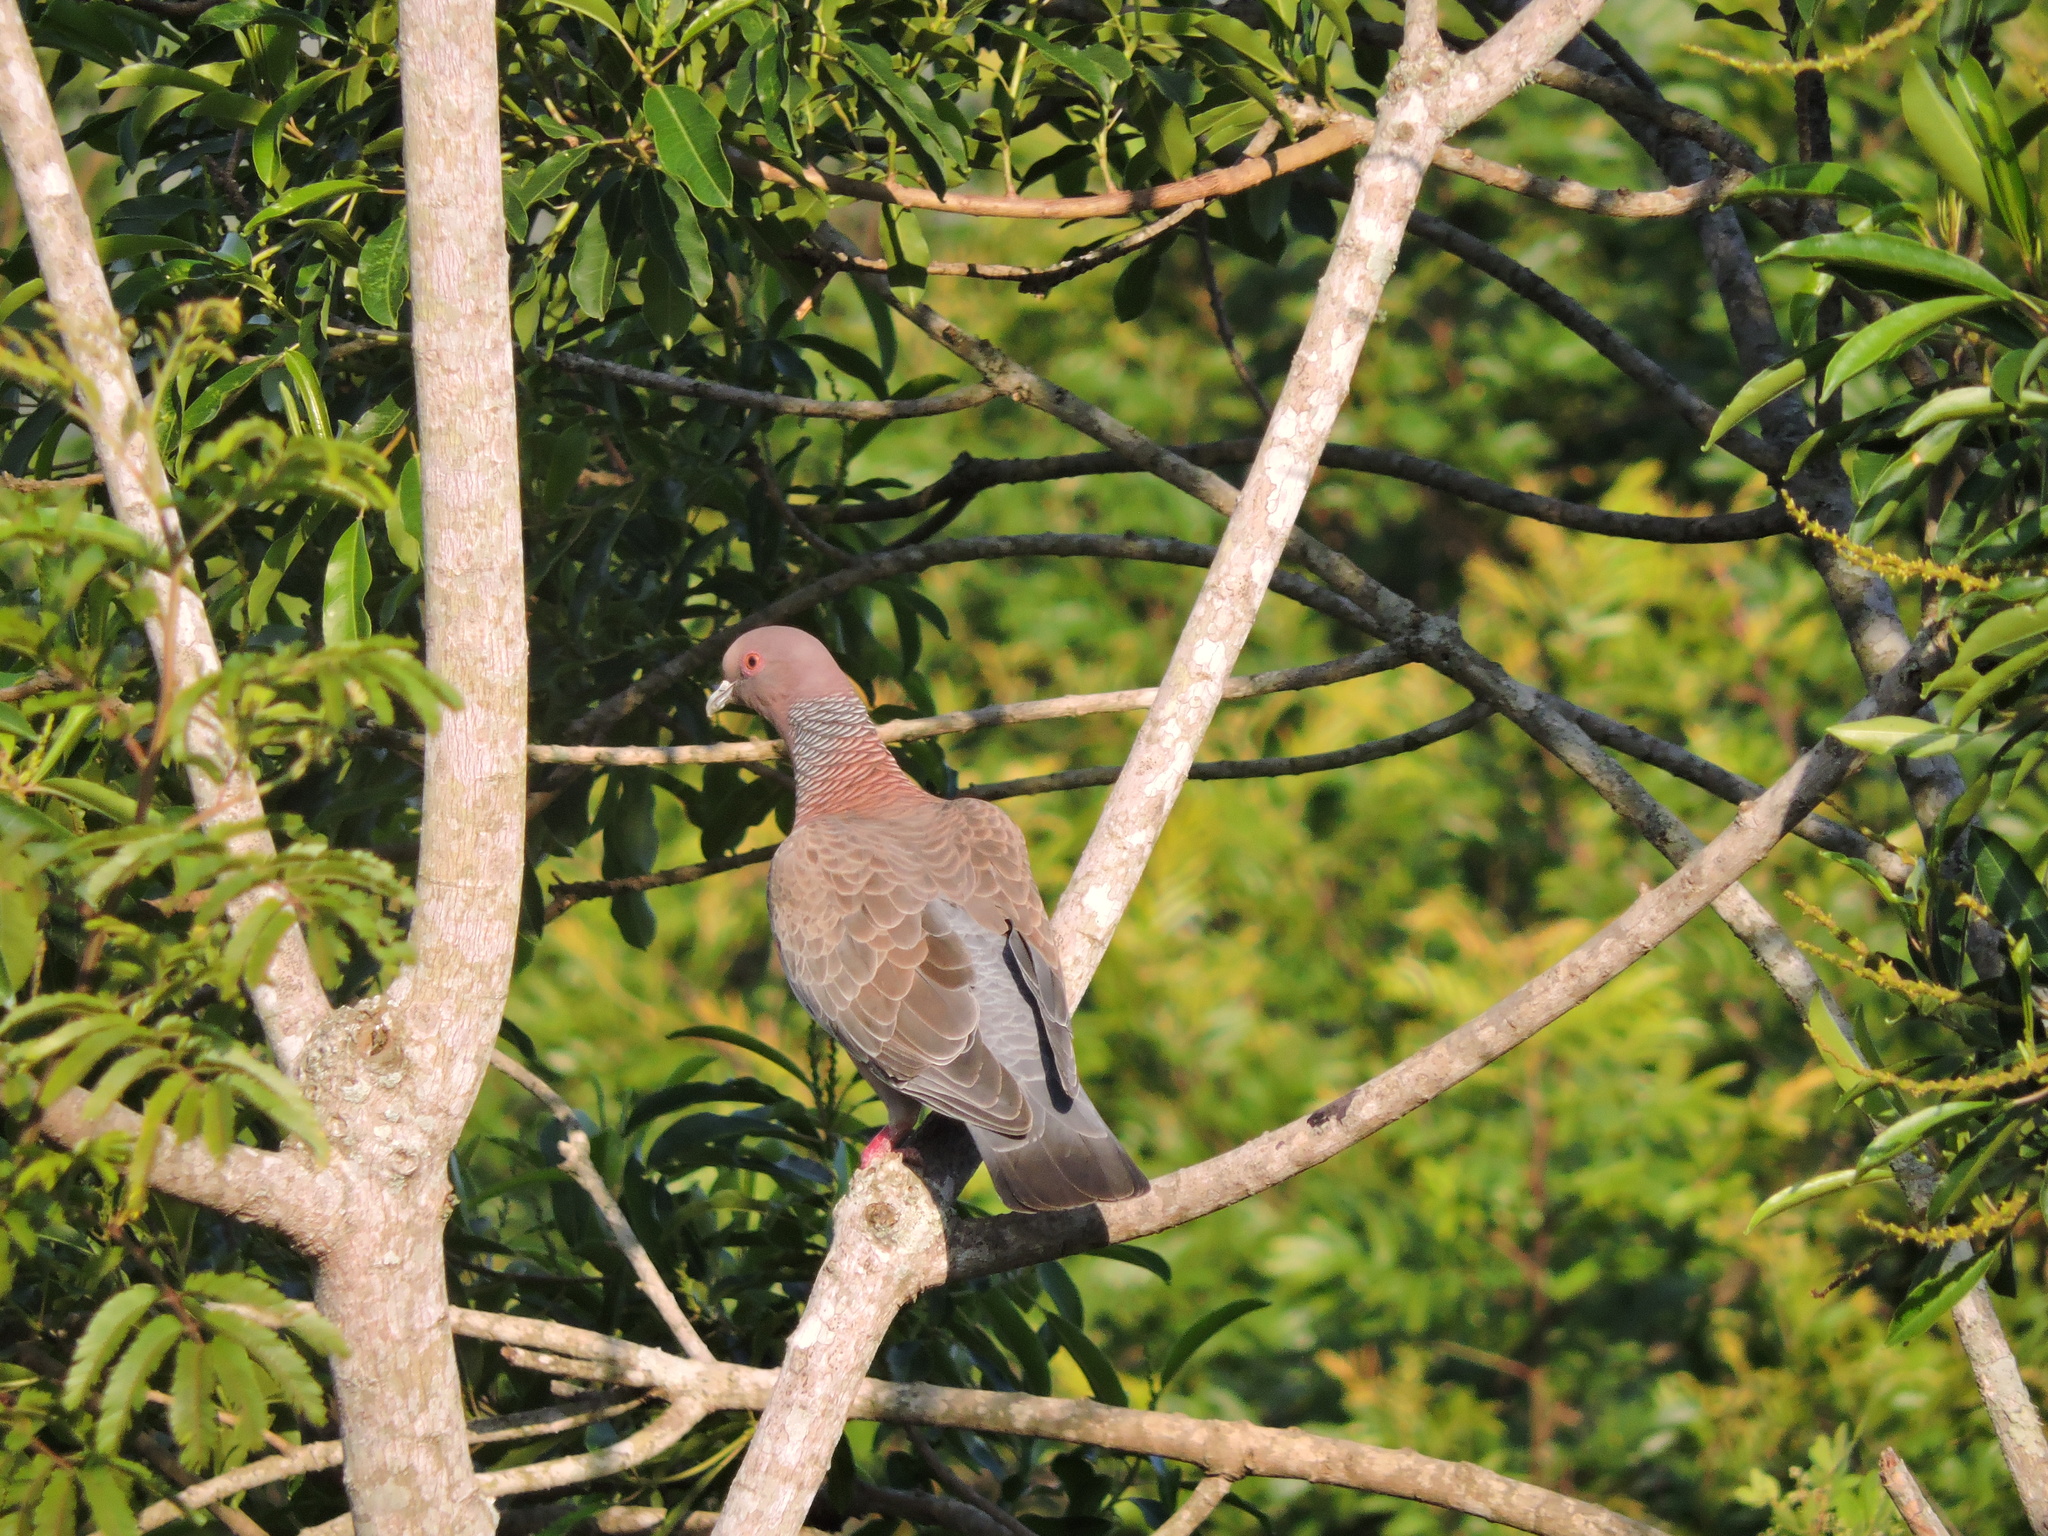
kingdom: Animalia
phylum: Chordata
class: Aves
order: Columbiformes
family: Columbidae
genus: Patagioenas
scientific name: Patagioenas picazuro
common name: Picazuro pigeon
